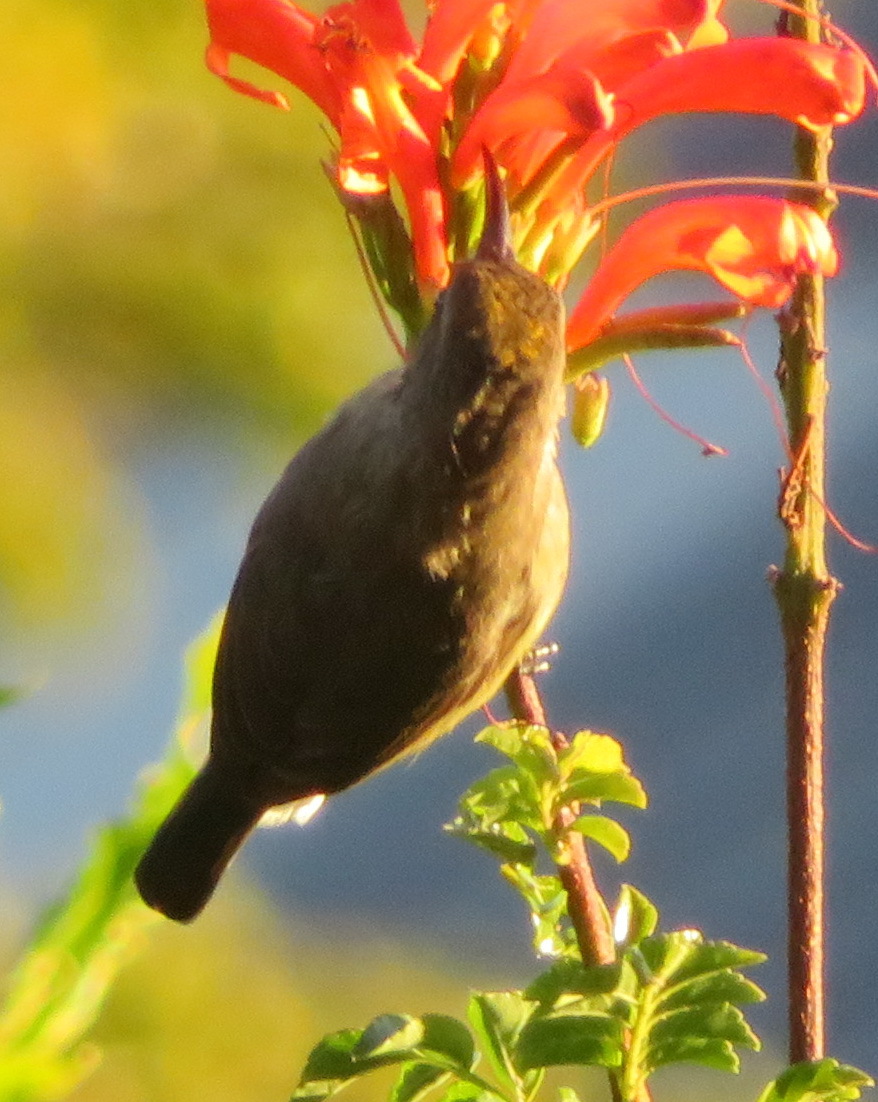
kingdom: Animalia
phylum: Chordata
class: Aves
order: Passeriformes
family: Nectariniidae
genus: Cinnyris
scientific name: Cinnyris afer
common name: Greater double-collared sunbird
